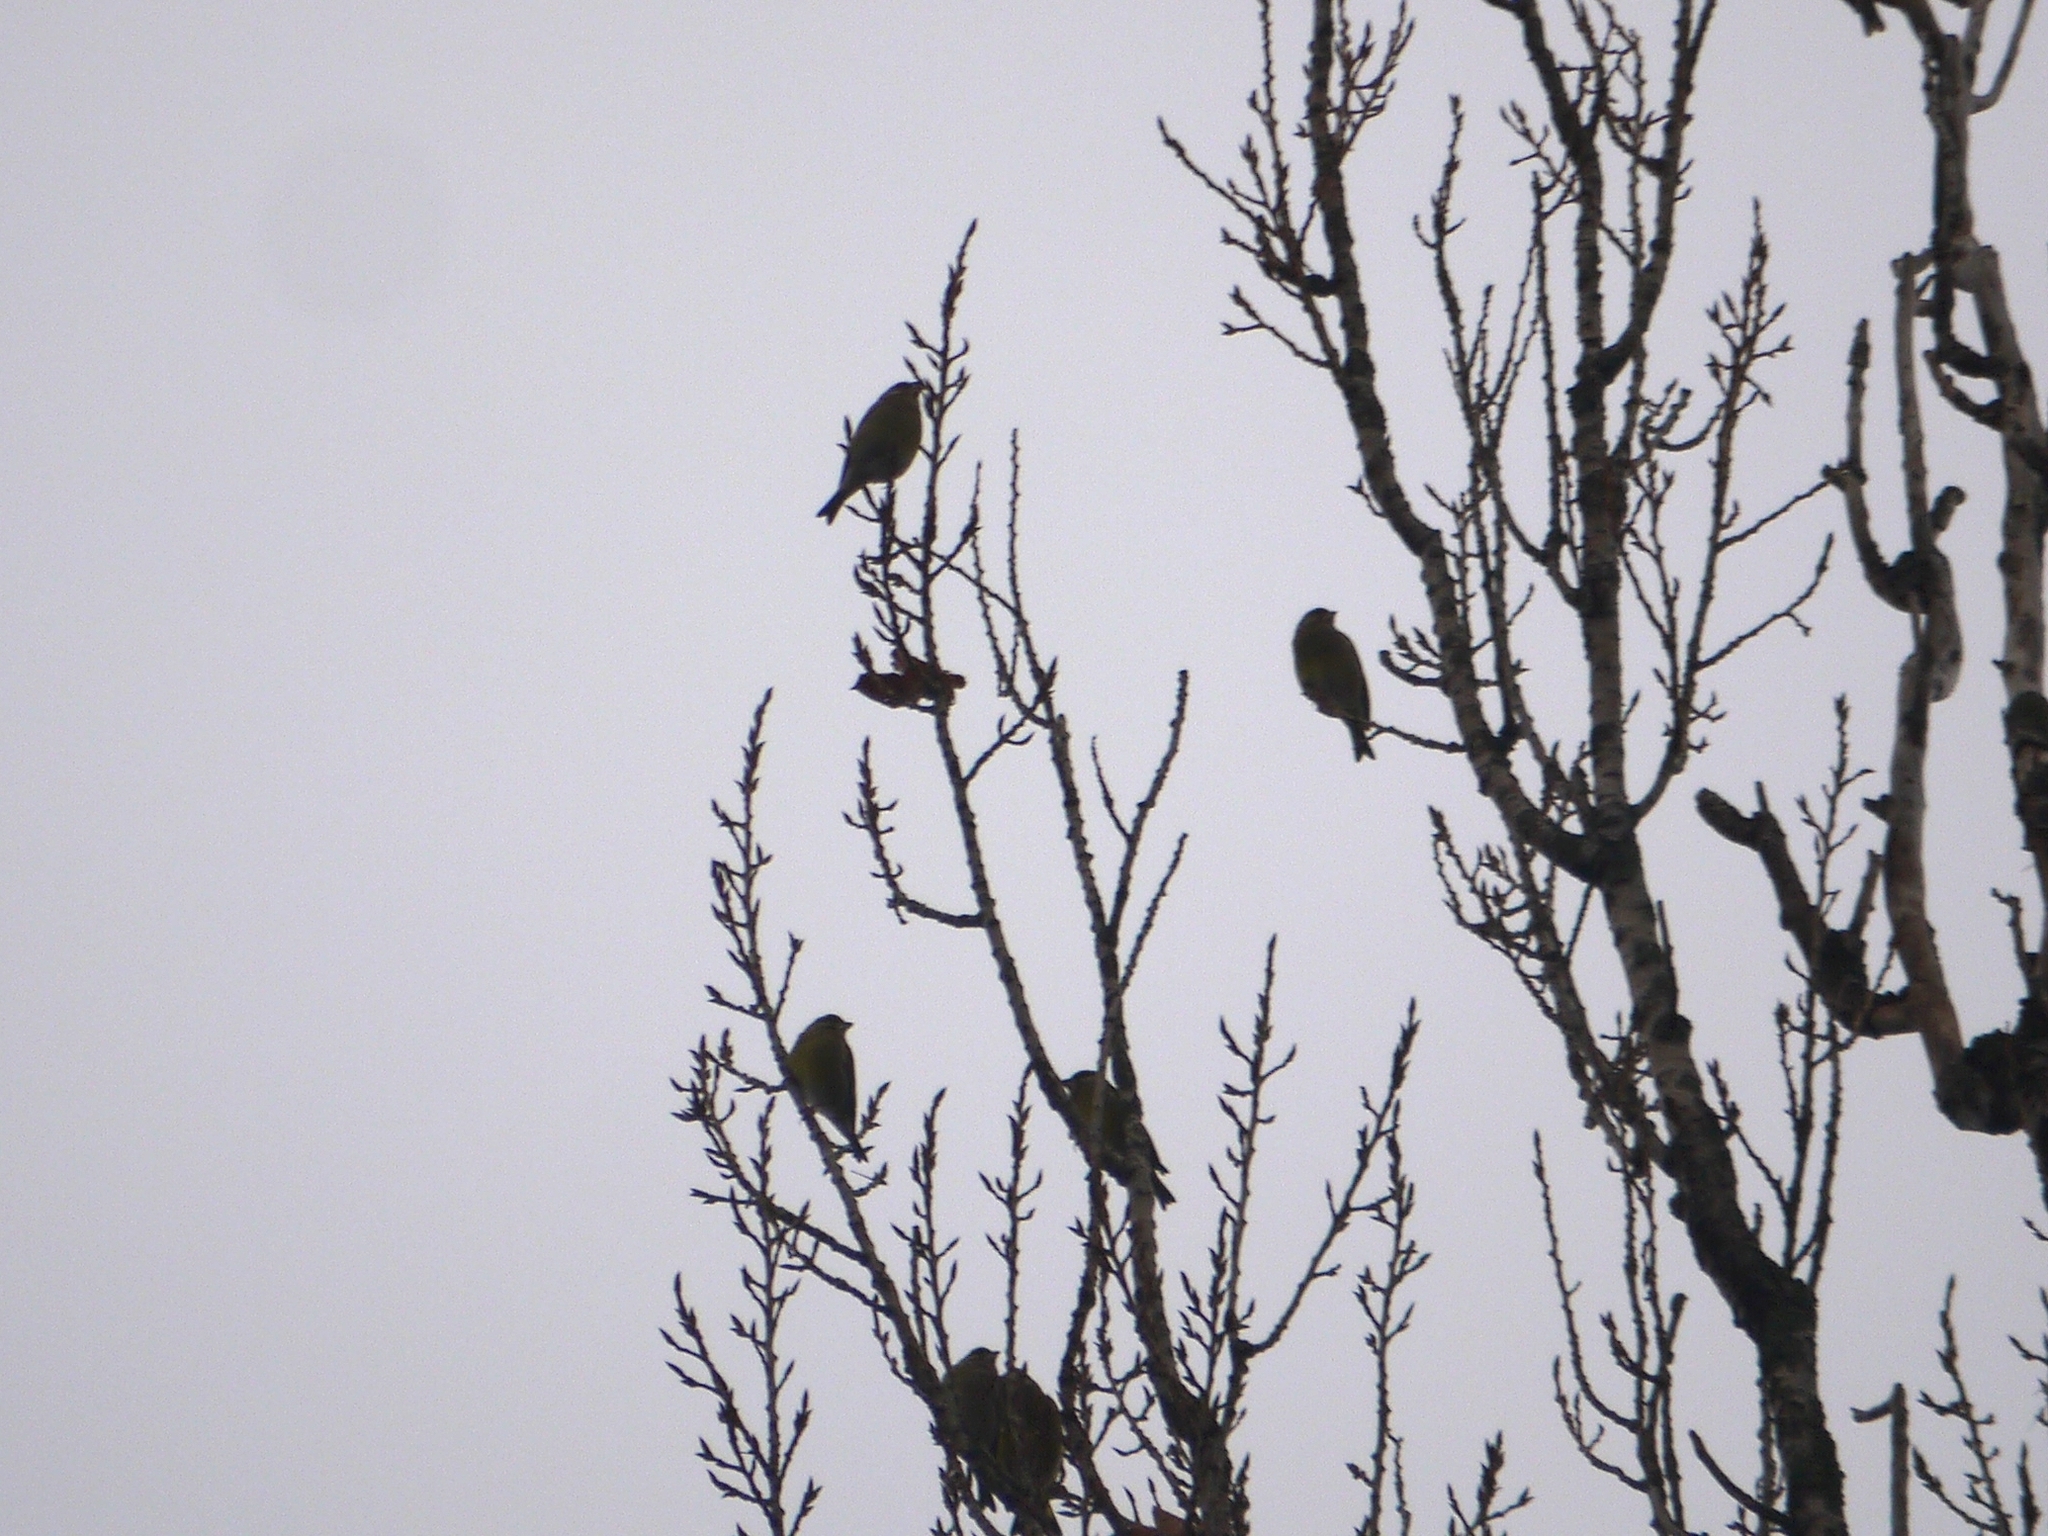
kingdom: Plantae
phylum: Tracheophyta
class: Liliopsida
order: Poales
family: Poaceae
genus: Chloris
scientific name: Chloris chloris
